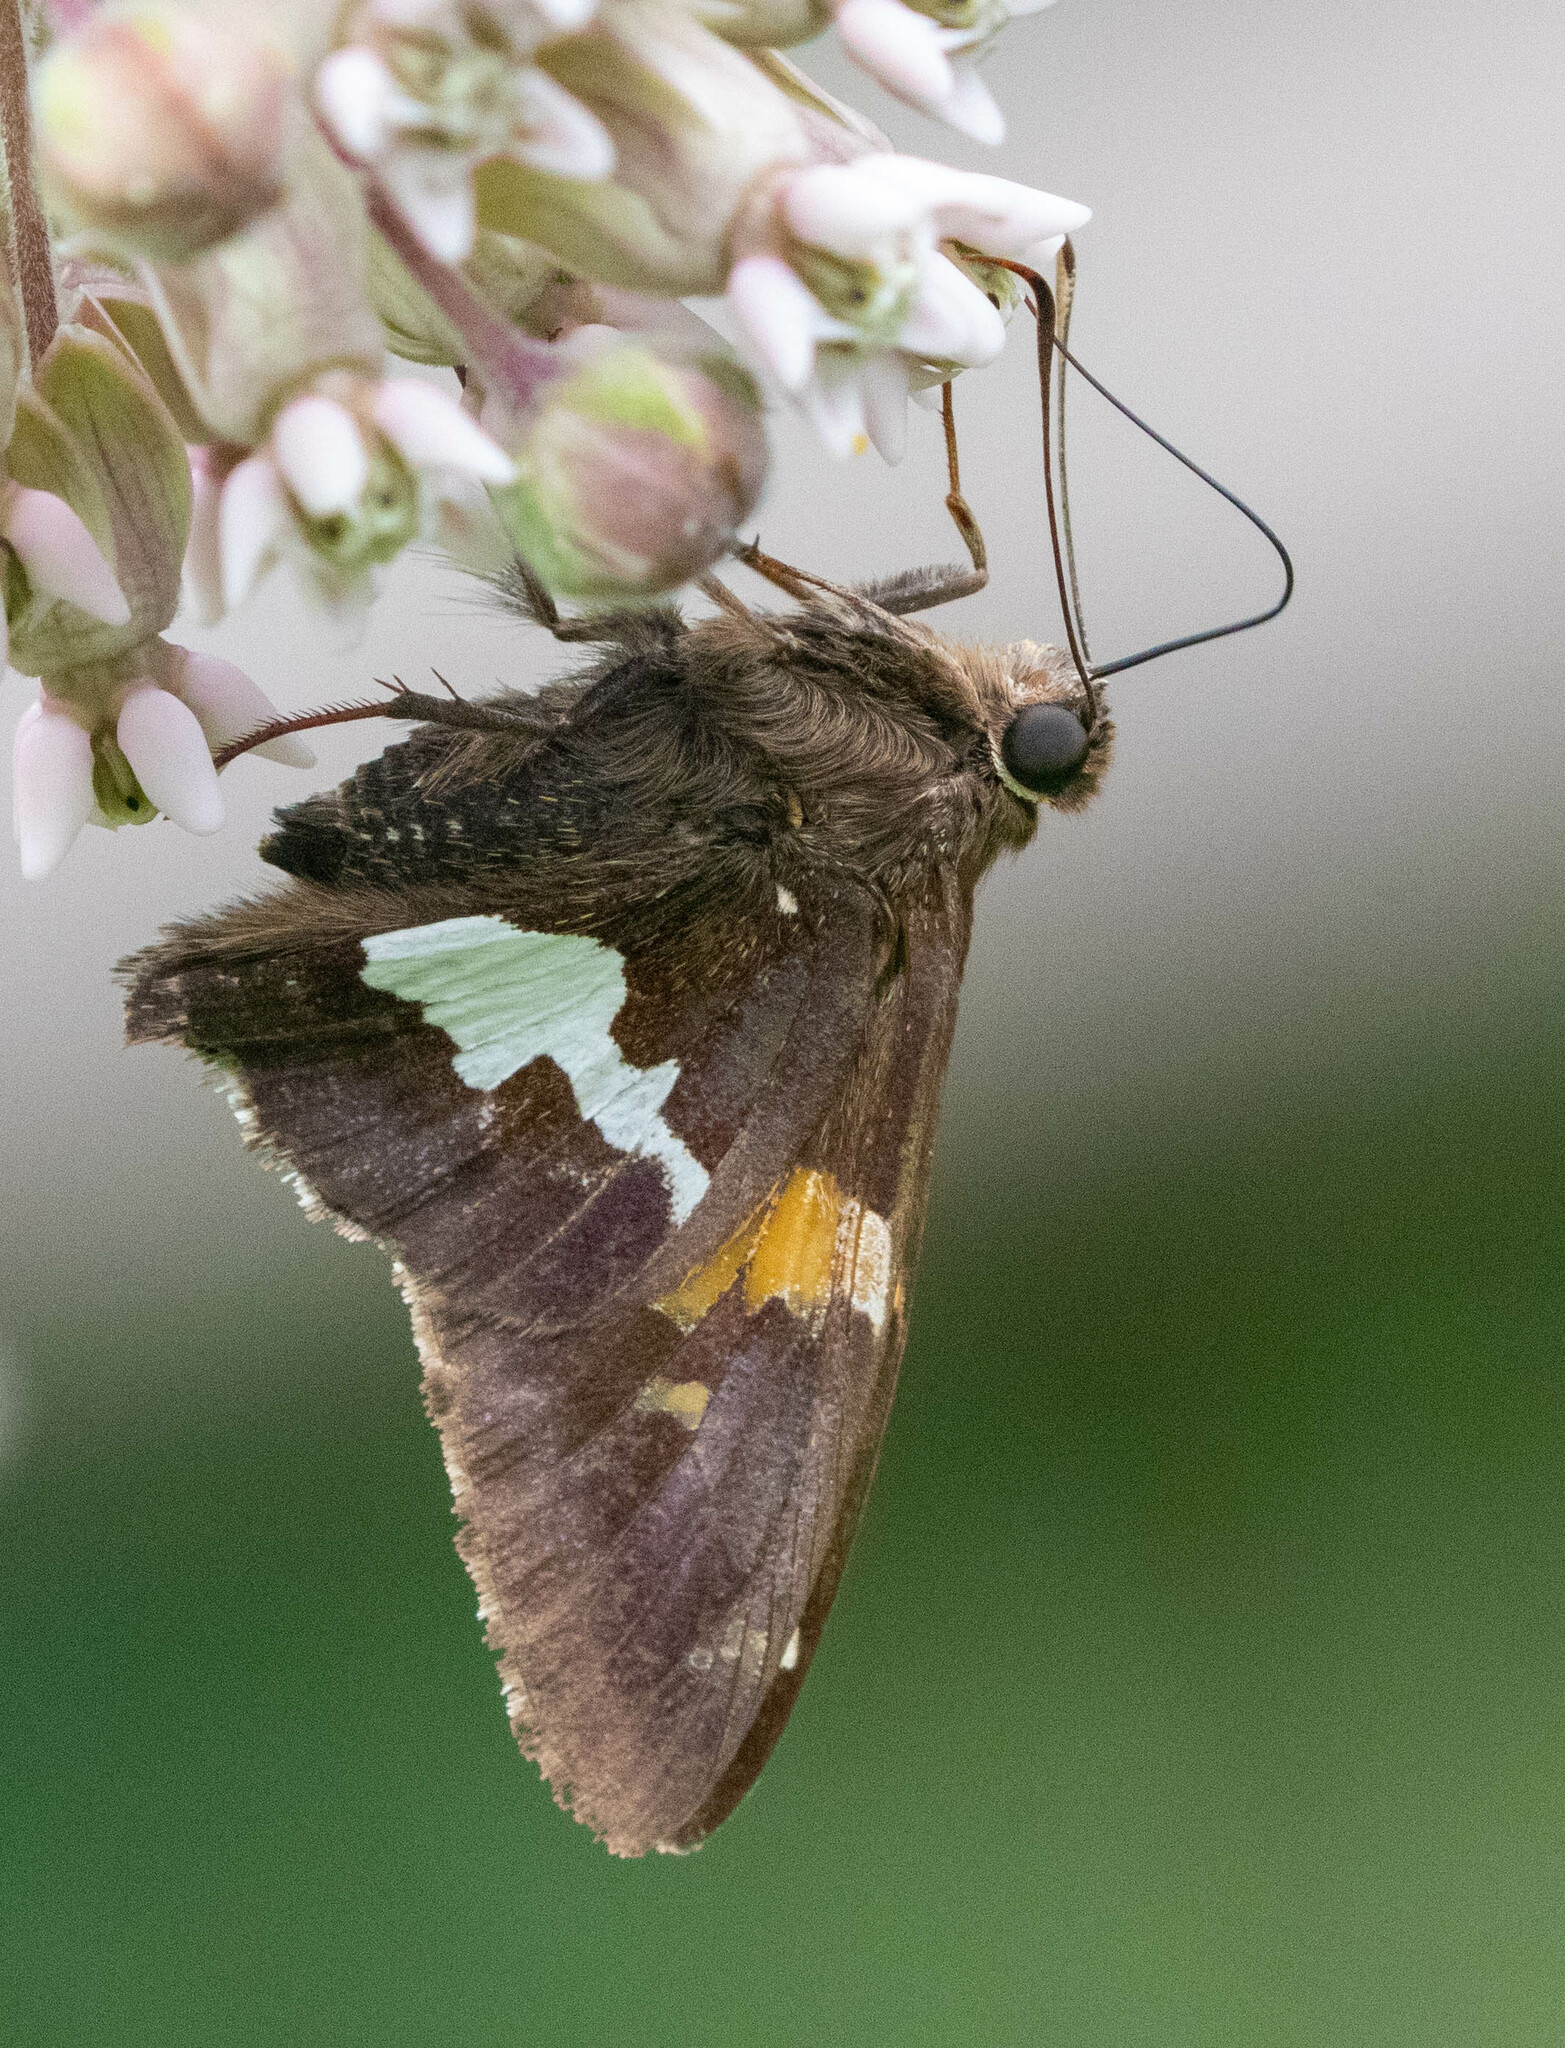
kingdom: Animalia
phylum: Arthropoda
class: Insecta
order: Lepidoptera
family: Hesperiidae
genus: Epargyreus
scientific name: Epargyreus clarus
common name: Silver-spotted skipper
